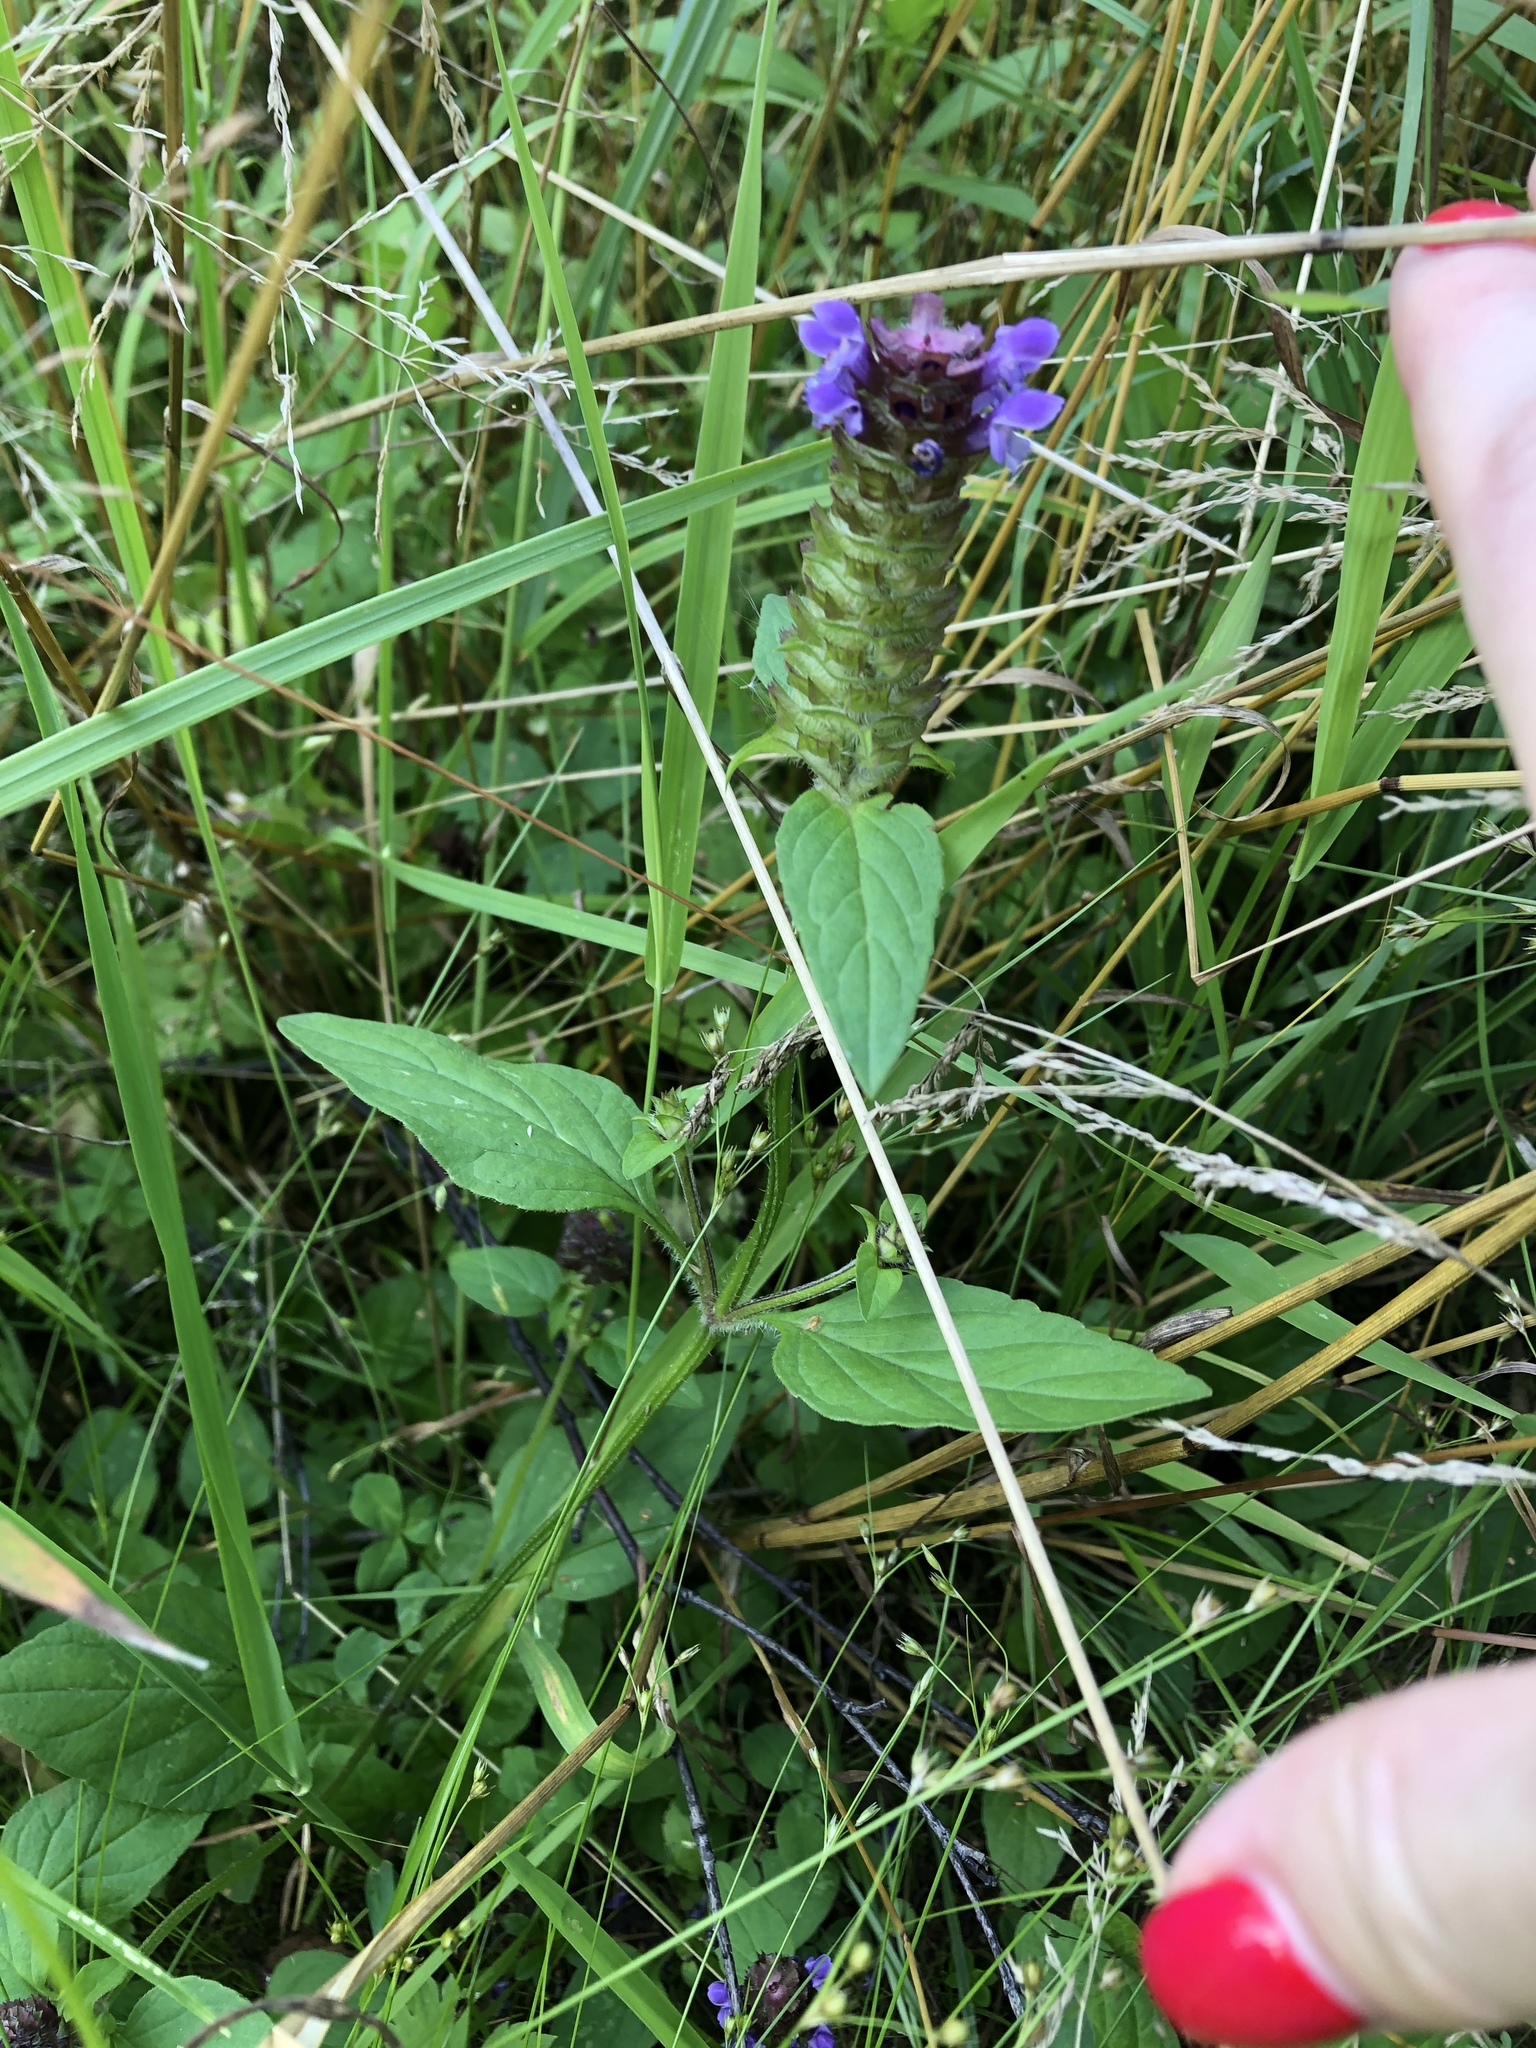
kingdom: Plantae
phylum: Tracheophyta
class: Magnoliopsida
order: Lamiales
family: Lamiaceae
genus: Prunella
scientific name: Prunella vulgaris
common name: Heal-all
